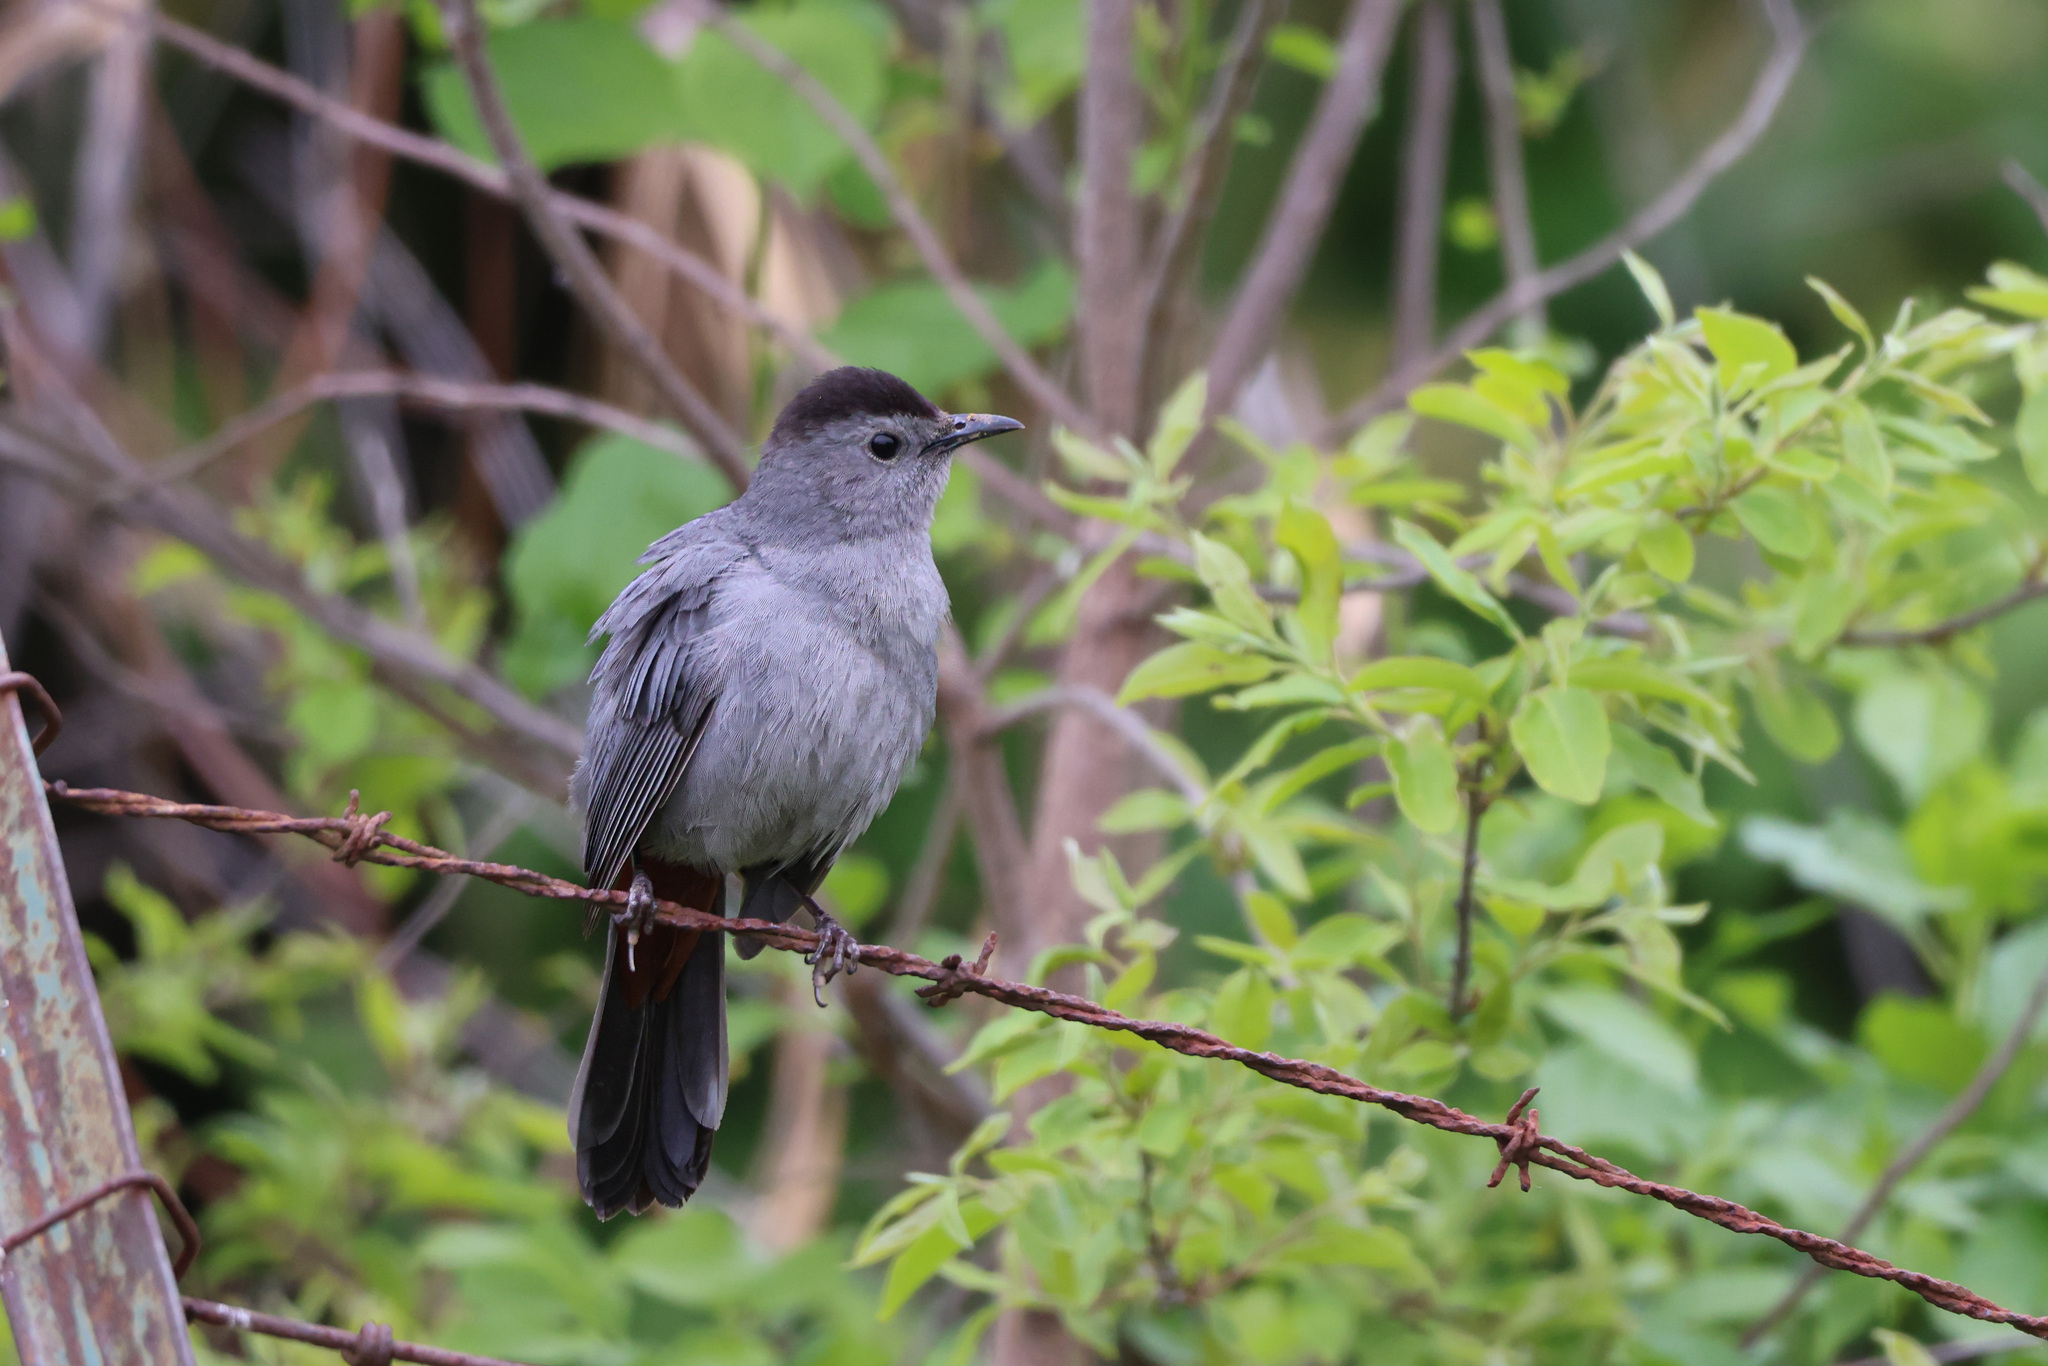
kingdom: Animalia
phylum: Chordata
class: Aves
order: Passeriformes
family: Mimidae
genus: Dumetella
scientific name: Dumetella carolinensis
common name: Gray catbird
